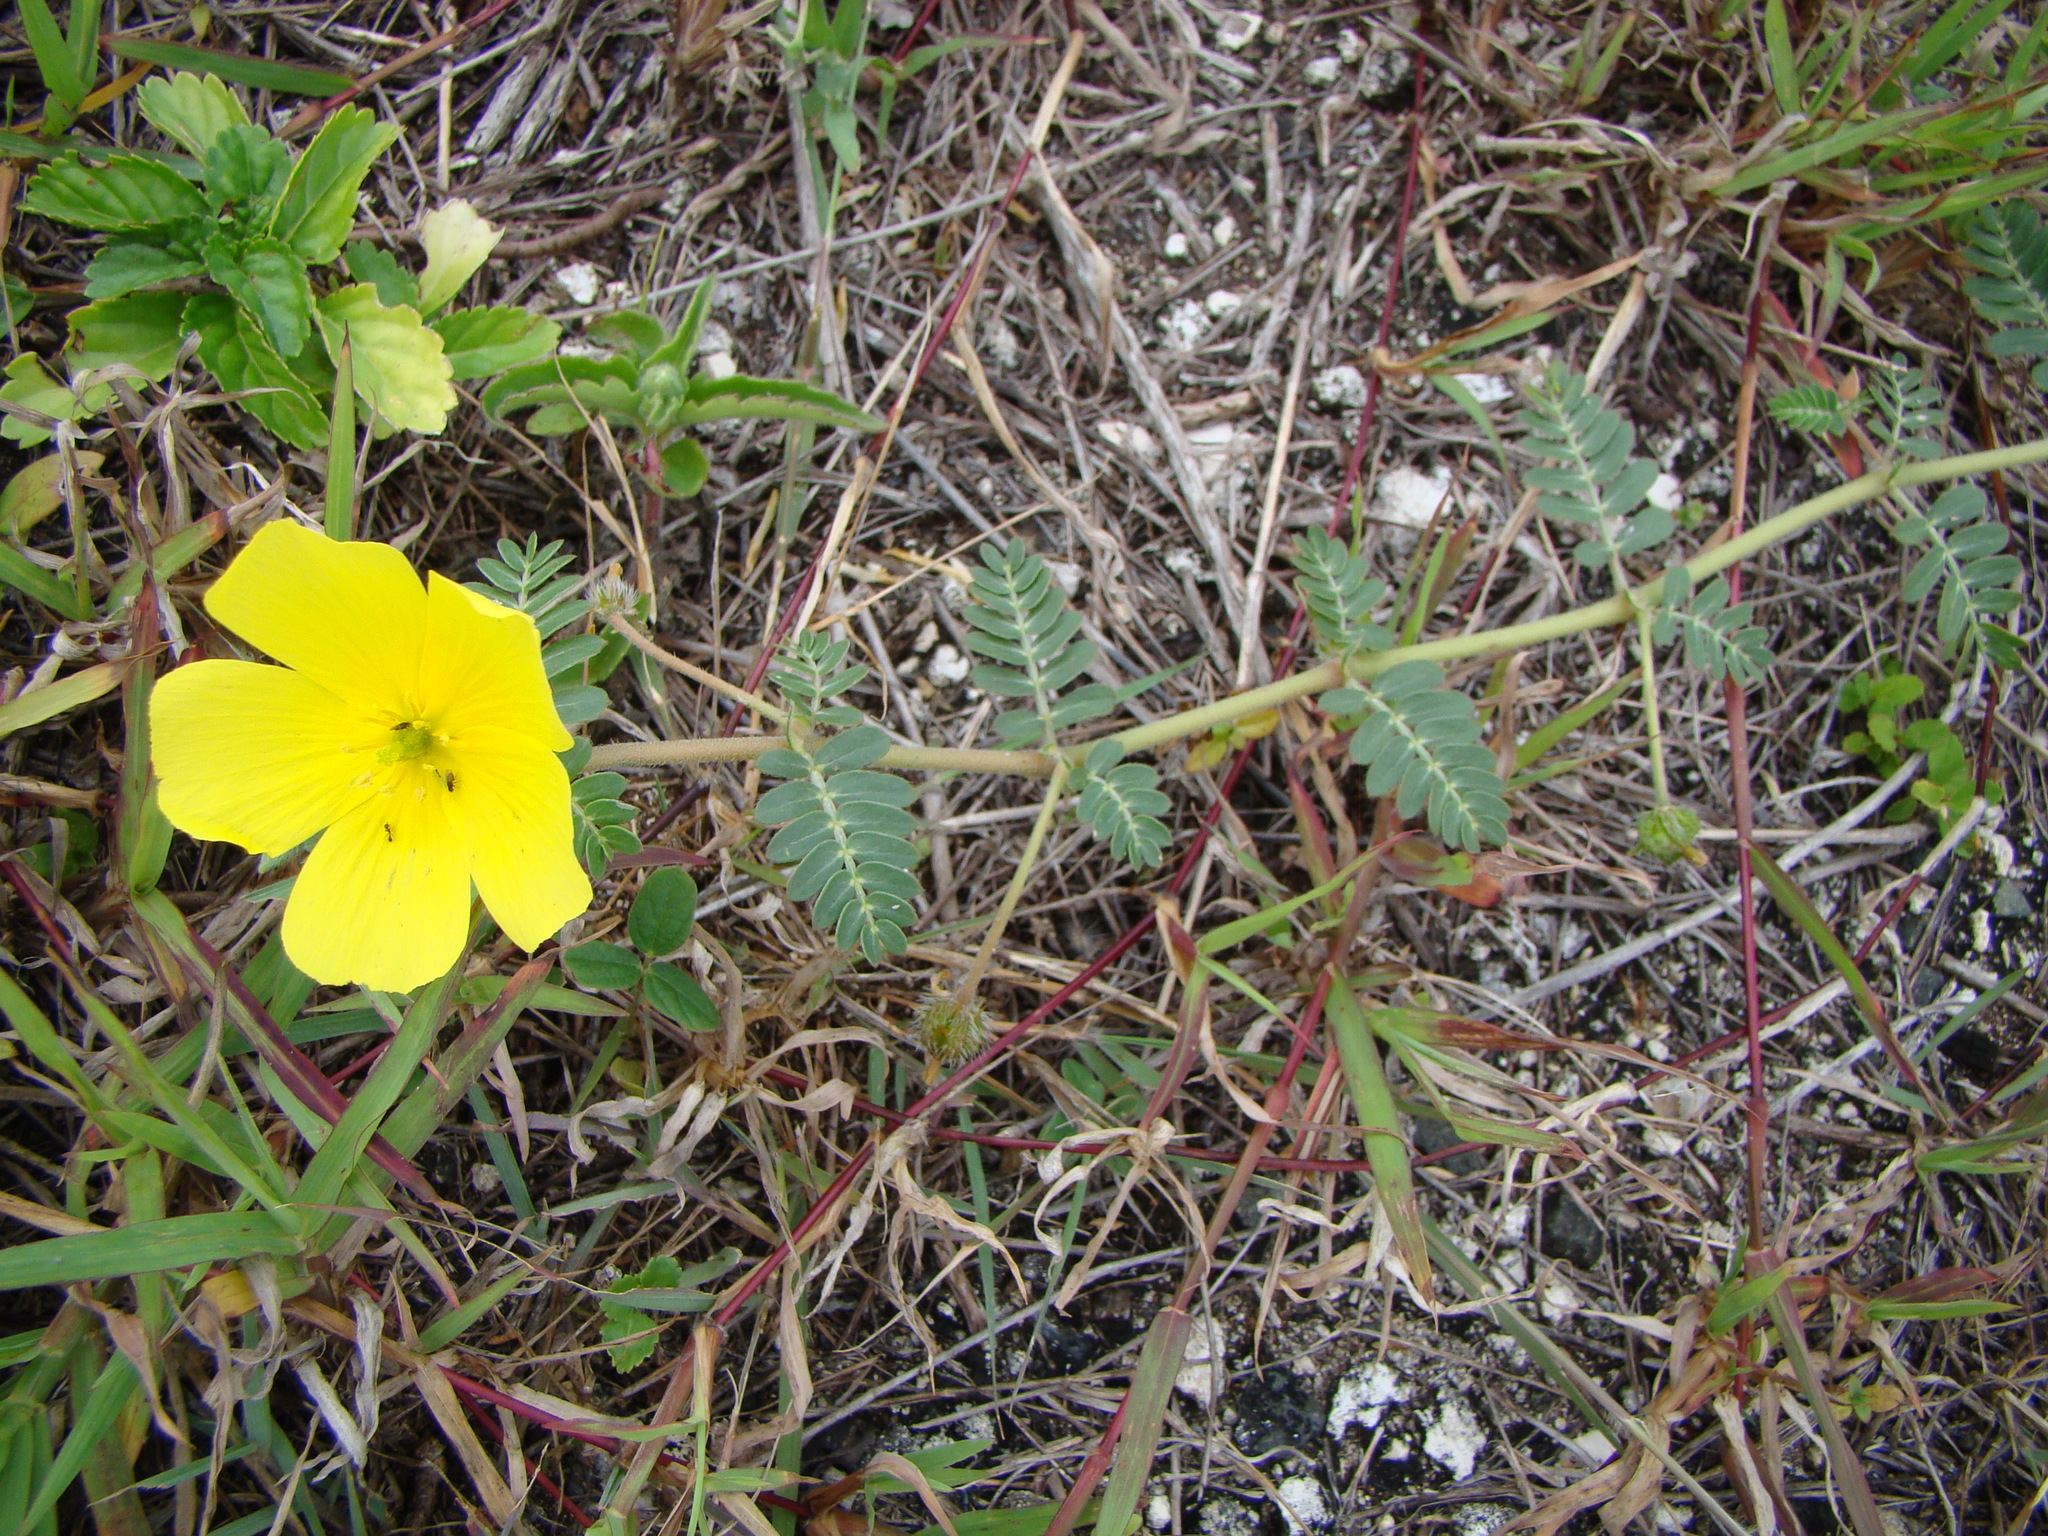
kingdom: Plantae
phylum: Tracheophyta
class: Magnoliopsida
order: Zygophyllales
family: Zygophyllaceae
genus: Tribulus
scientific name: Tribulus cistoides
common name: Jamaican feverplant
